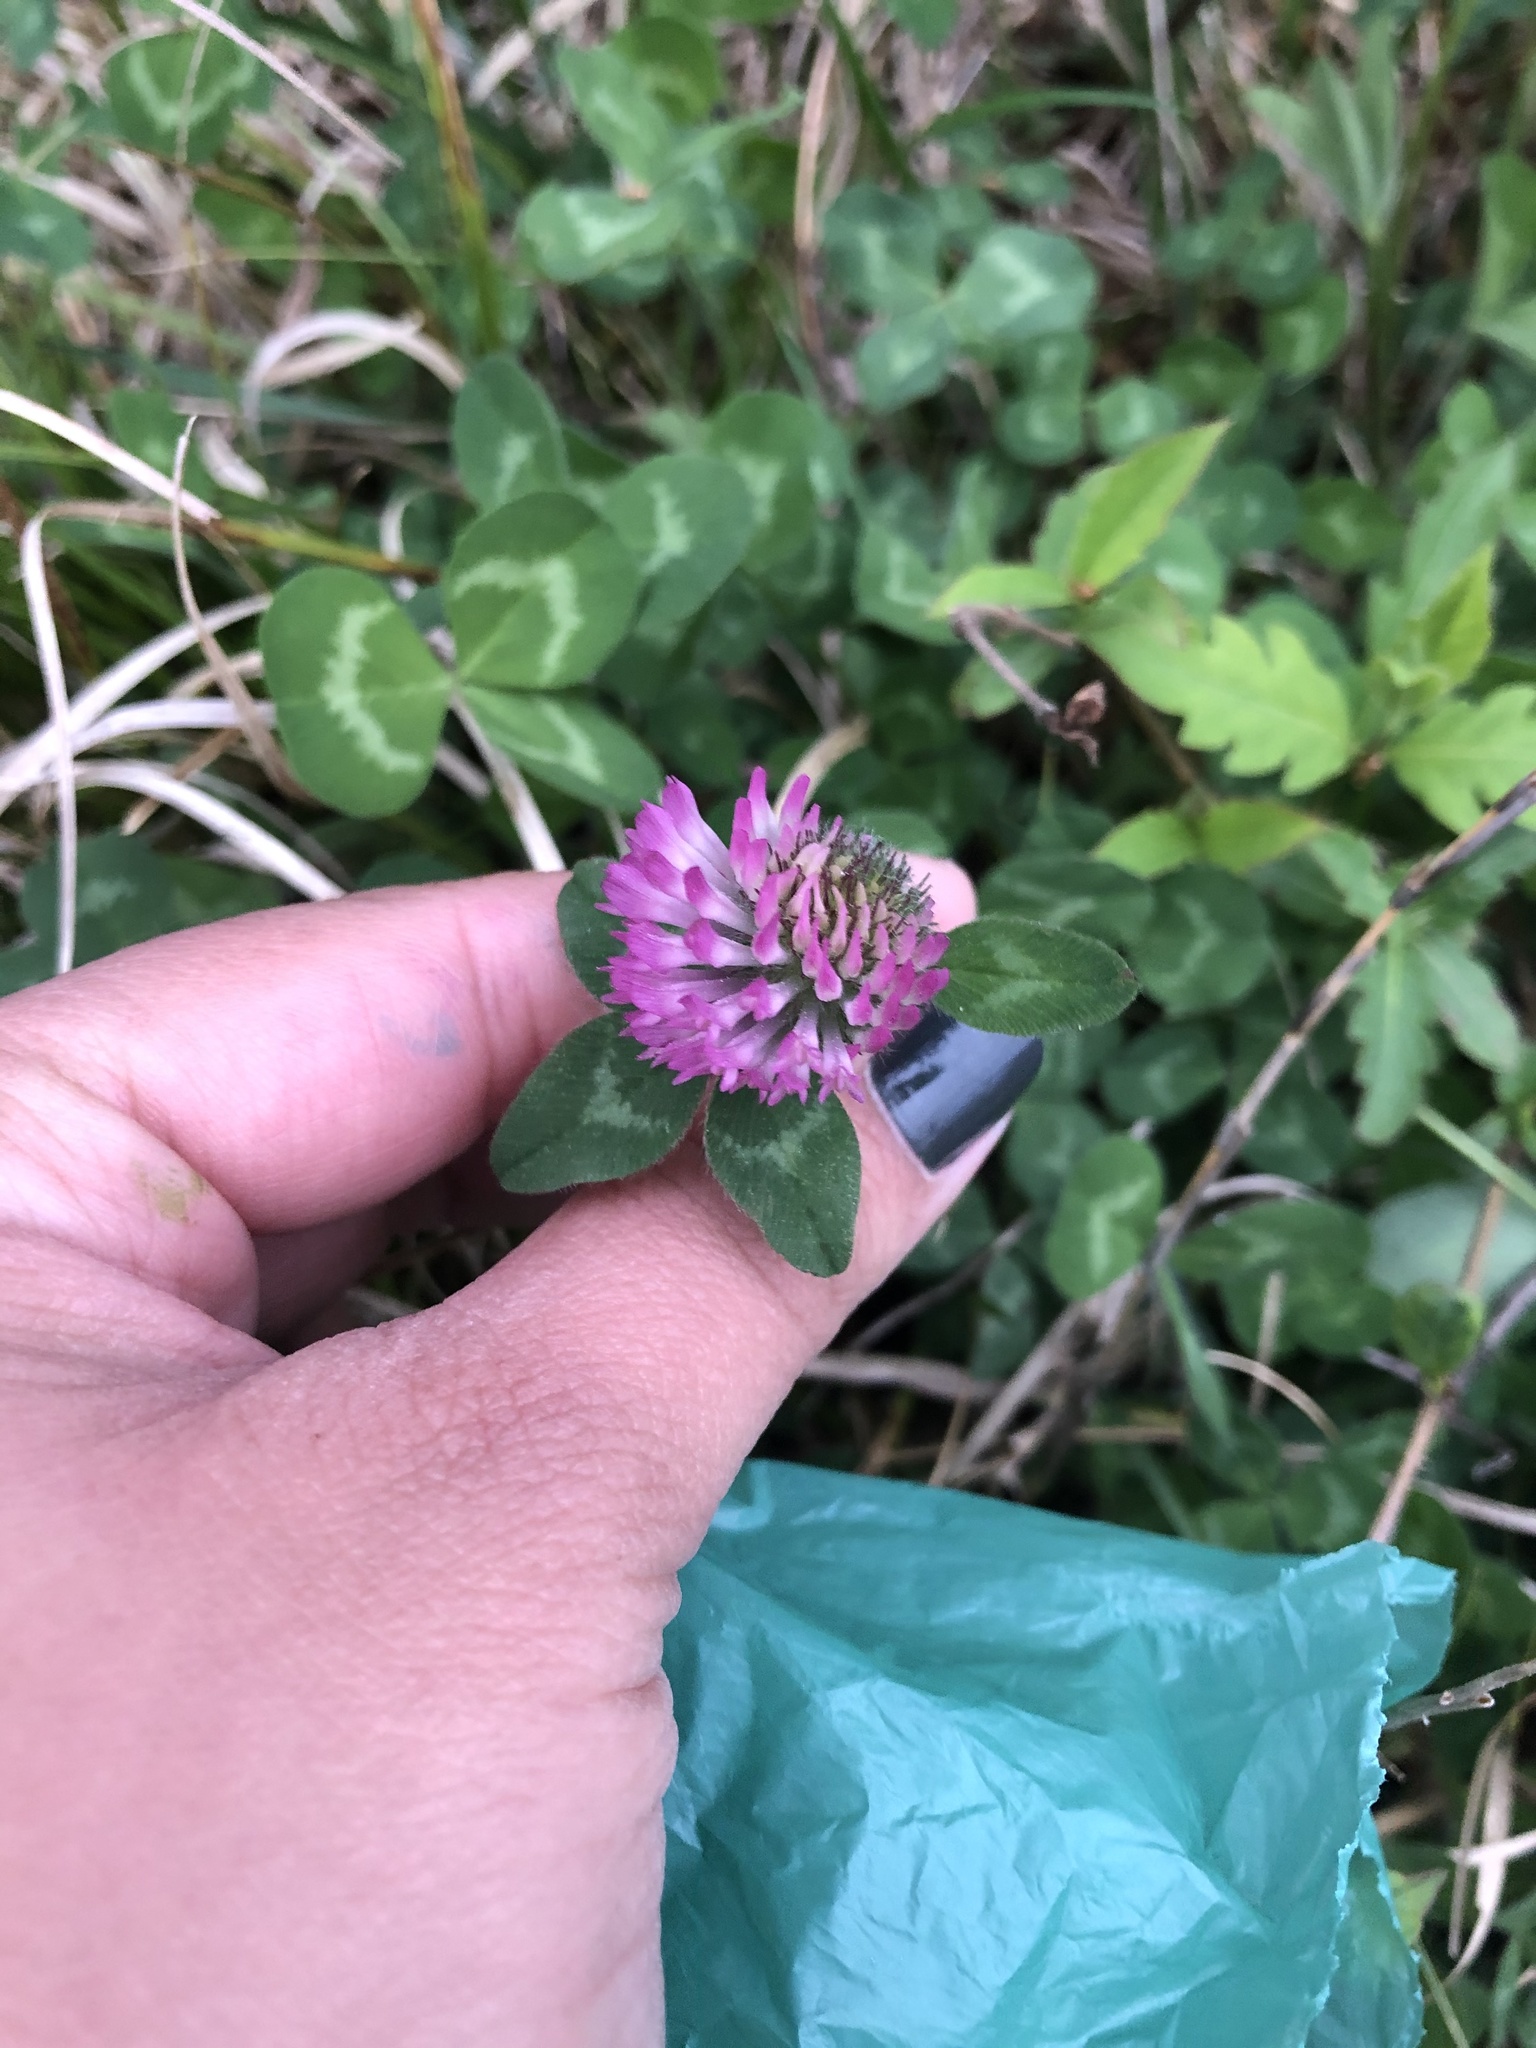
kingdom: Plantae
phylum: Tracheophyta
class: Magnoliopsida
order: Fabales
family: Fabaceae
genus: Trifolium
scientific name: Trifolium pratense
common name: Red clover
